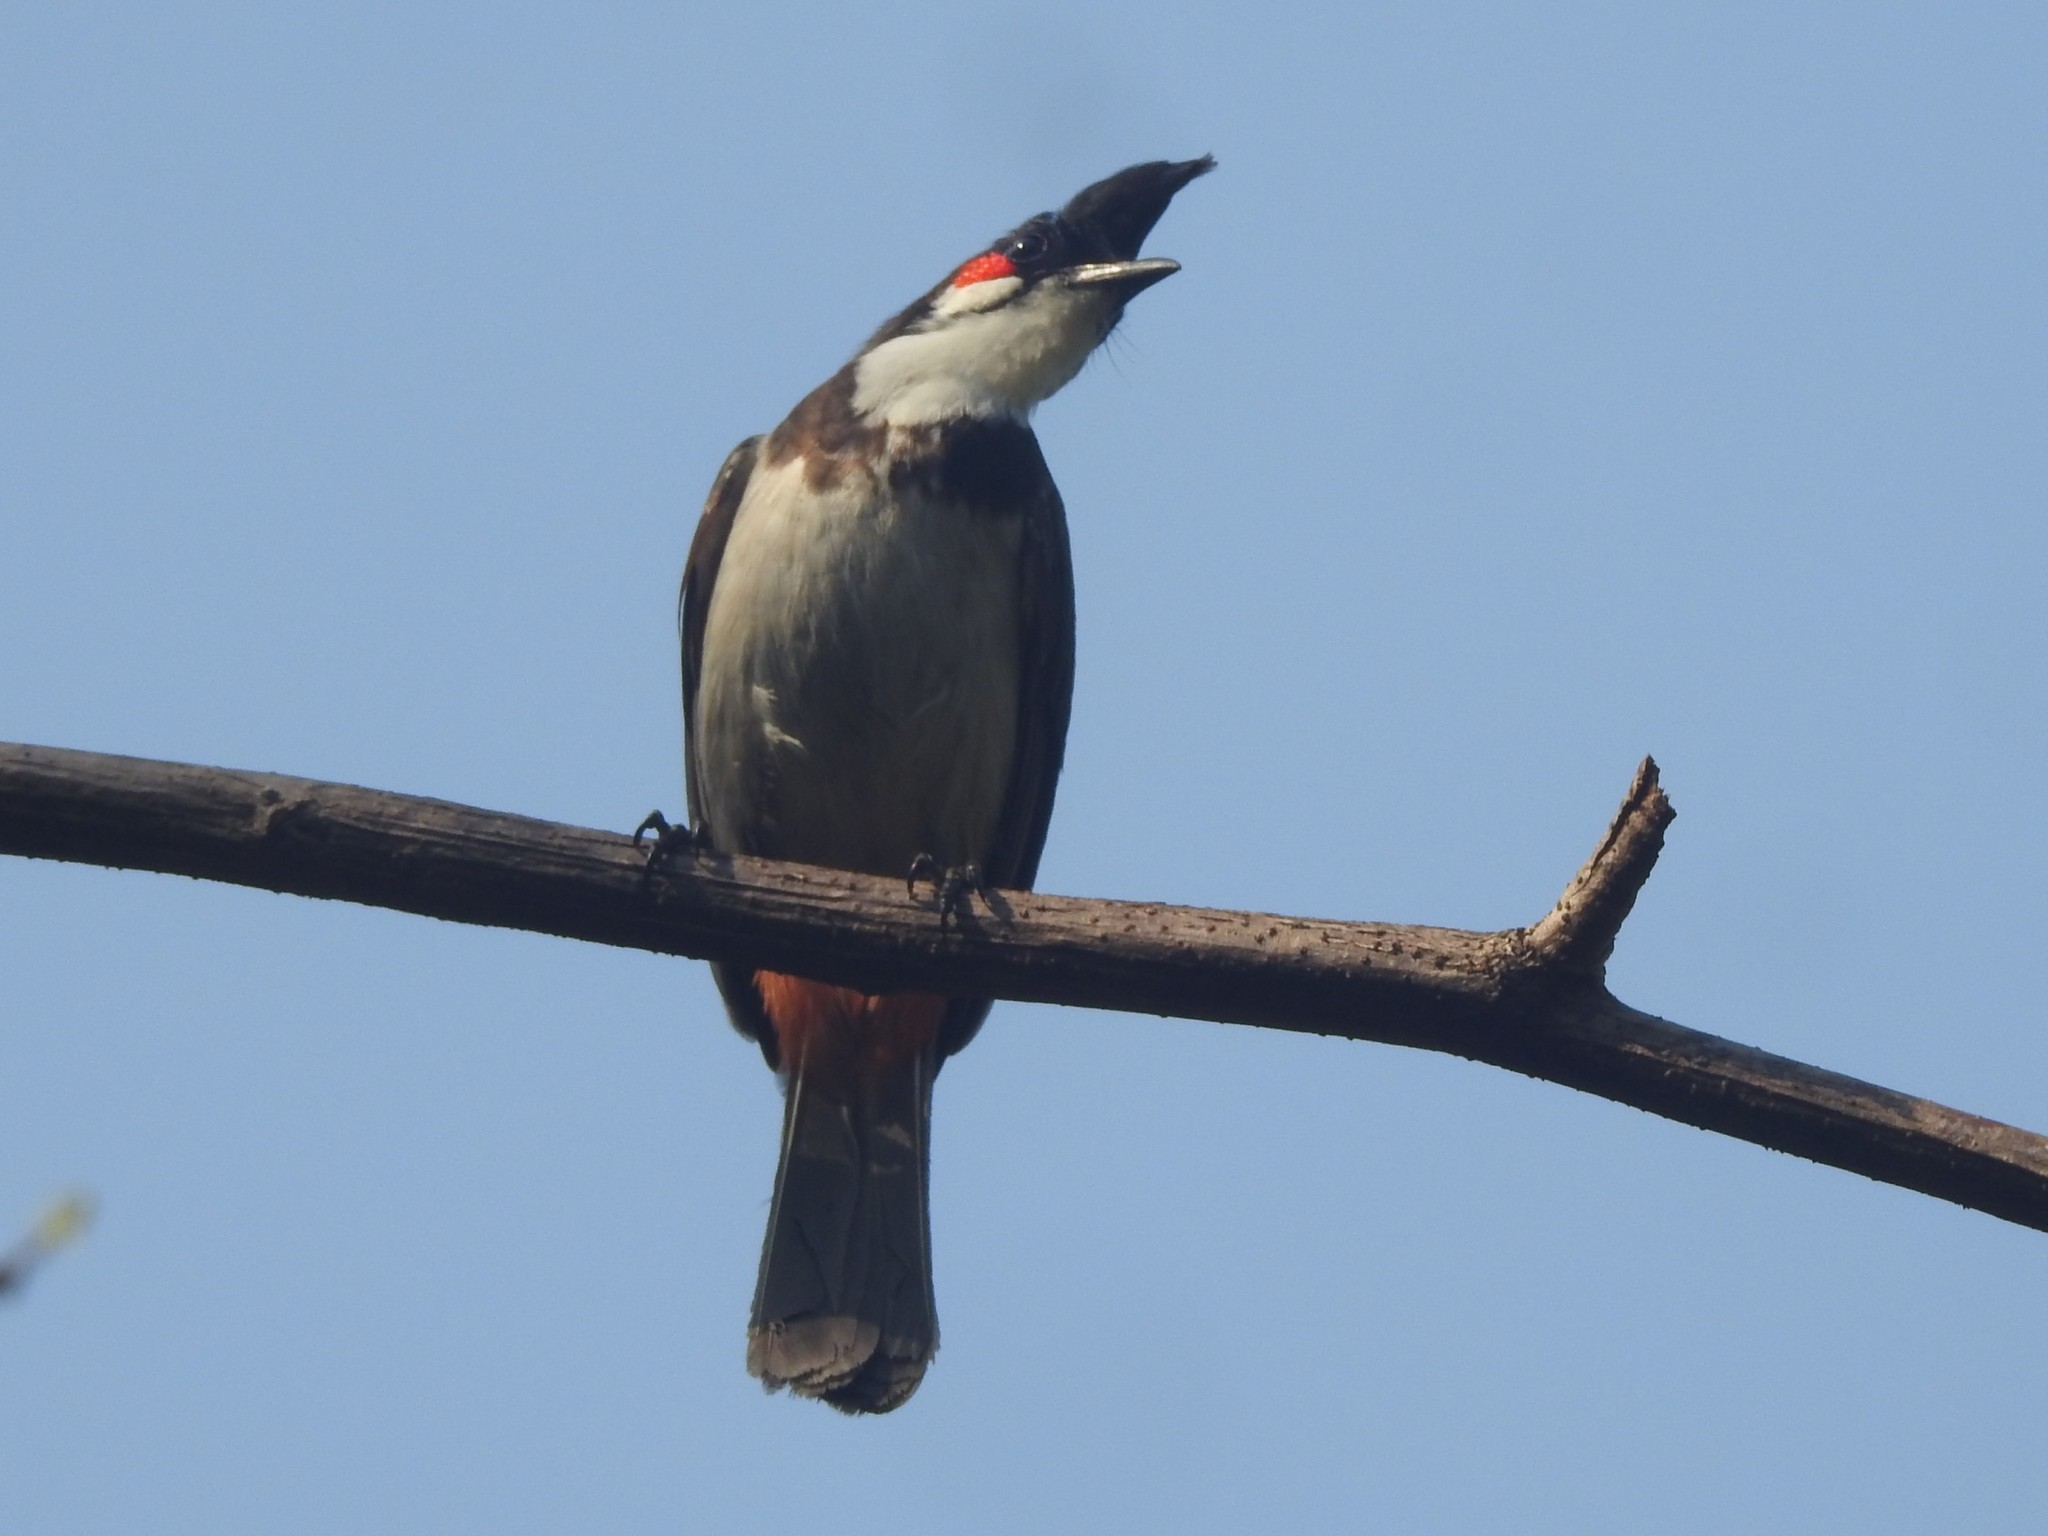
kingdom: Animalia
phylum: Chordata
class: Aves
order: Passeriformes
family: Pycnonotidae
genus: Pycnonotus
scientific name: Pycnonotus jocosus
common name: Red-whiskered bulbul
